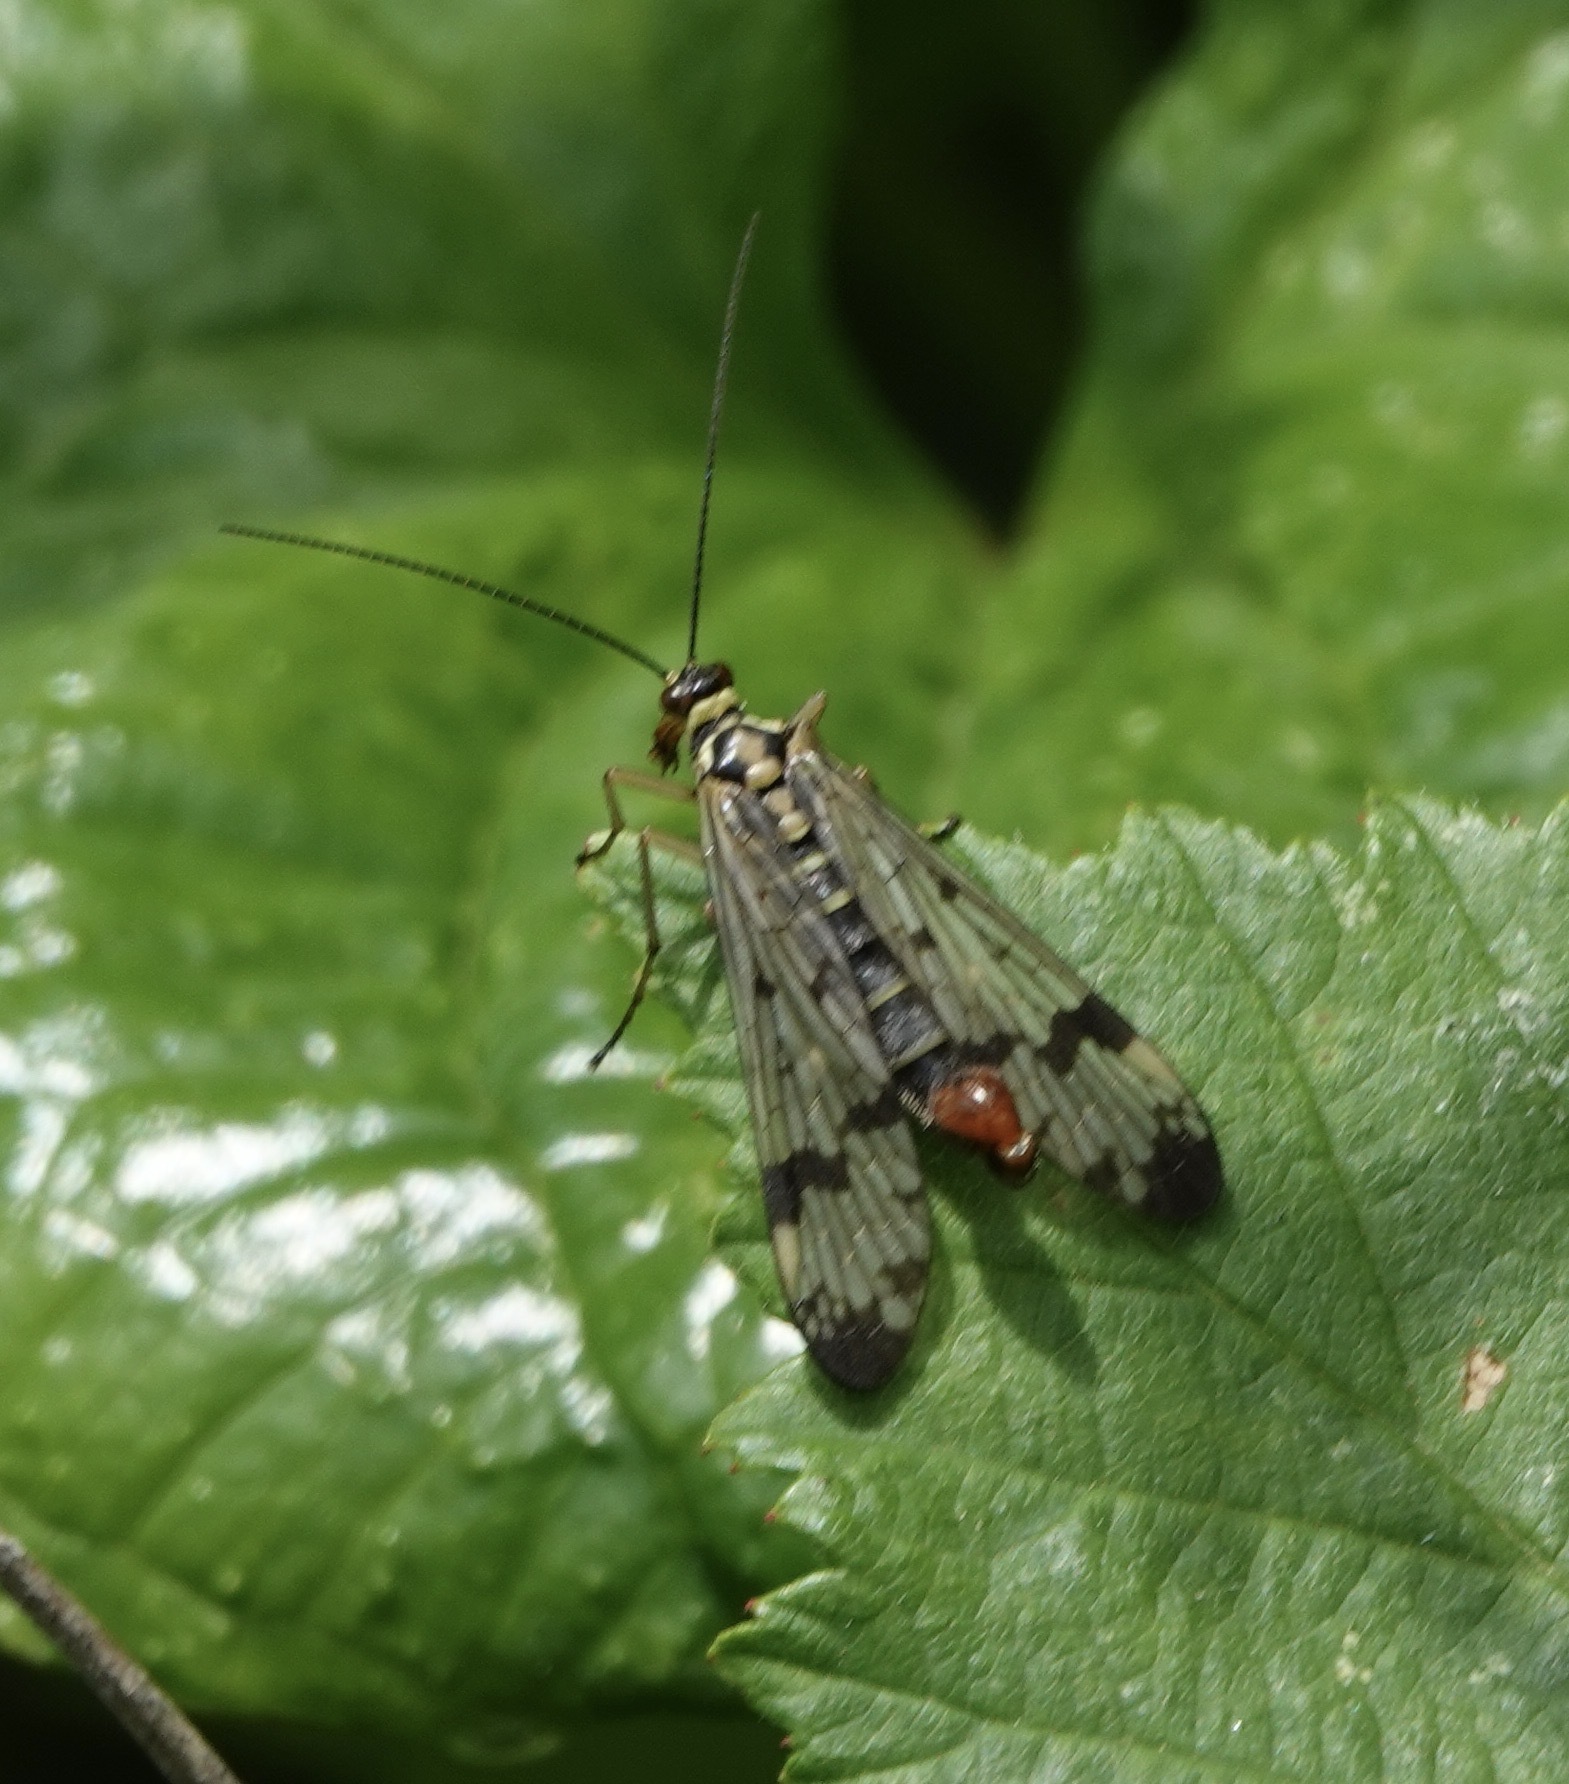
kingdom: Animalia
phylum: Arthropoda
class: Insecta
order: Mecoptera
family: Panorpidae
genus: Panorpa
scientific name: Panorpa communis
